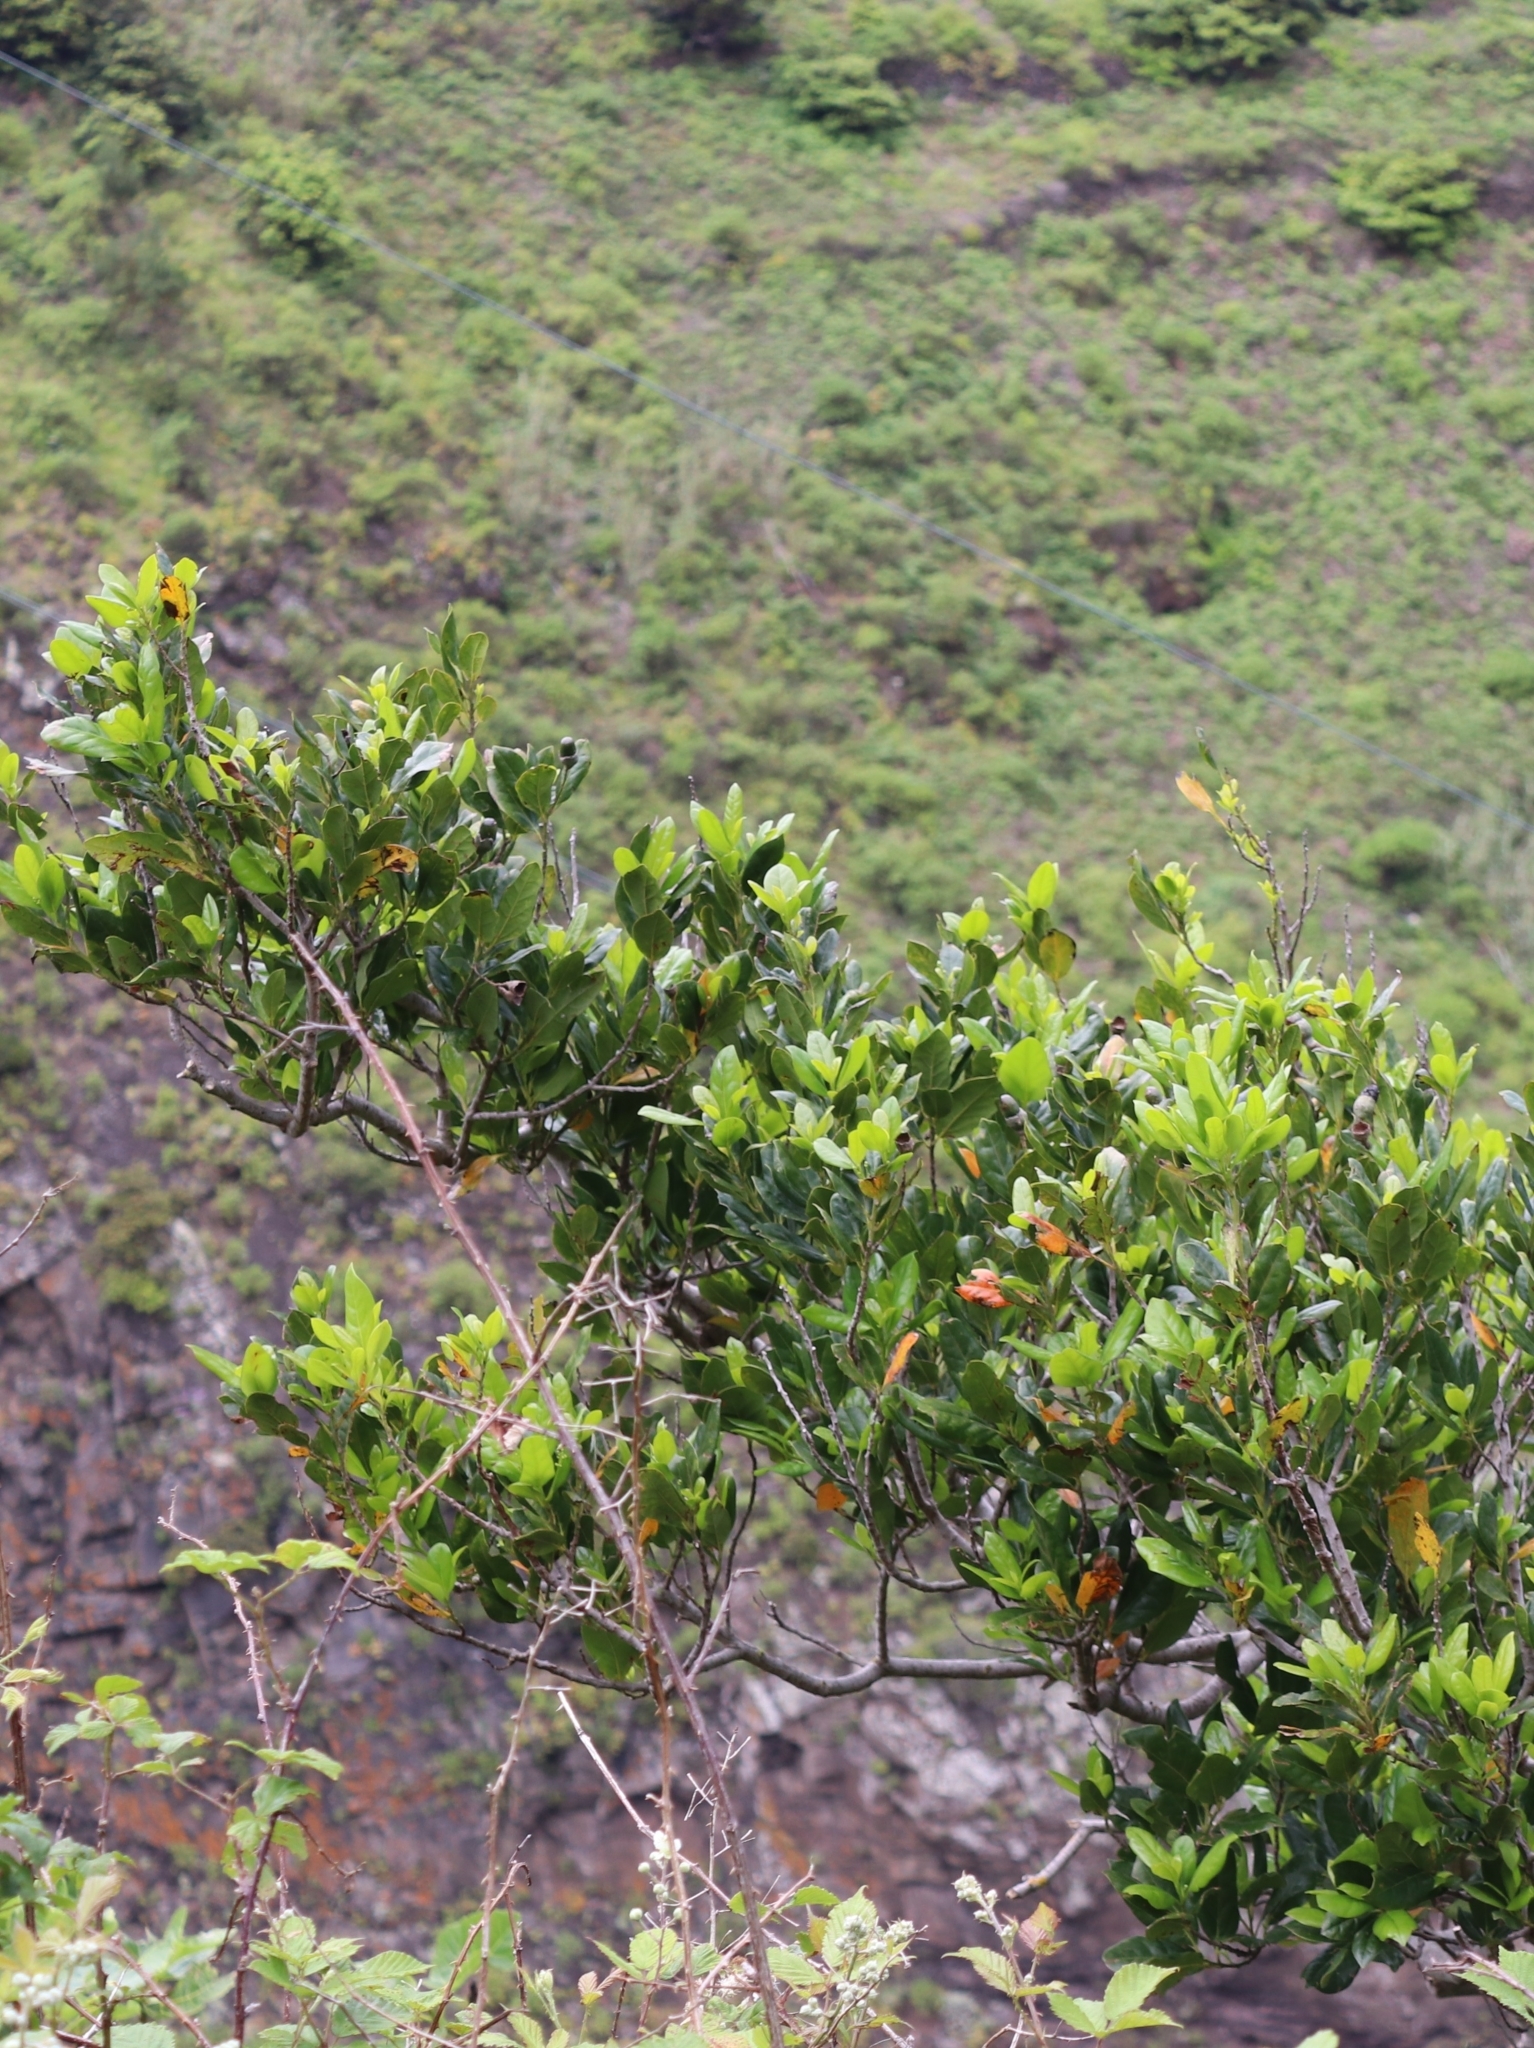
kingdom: Plantae
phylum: Tracheophyta
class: Magnoliopsida
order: Laurales
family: Lauraceae
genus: Mespilodaphne
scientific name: Mespilodaphne foetens
